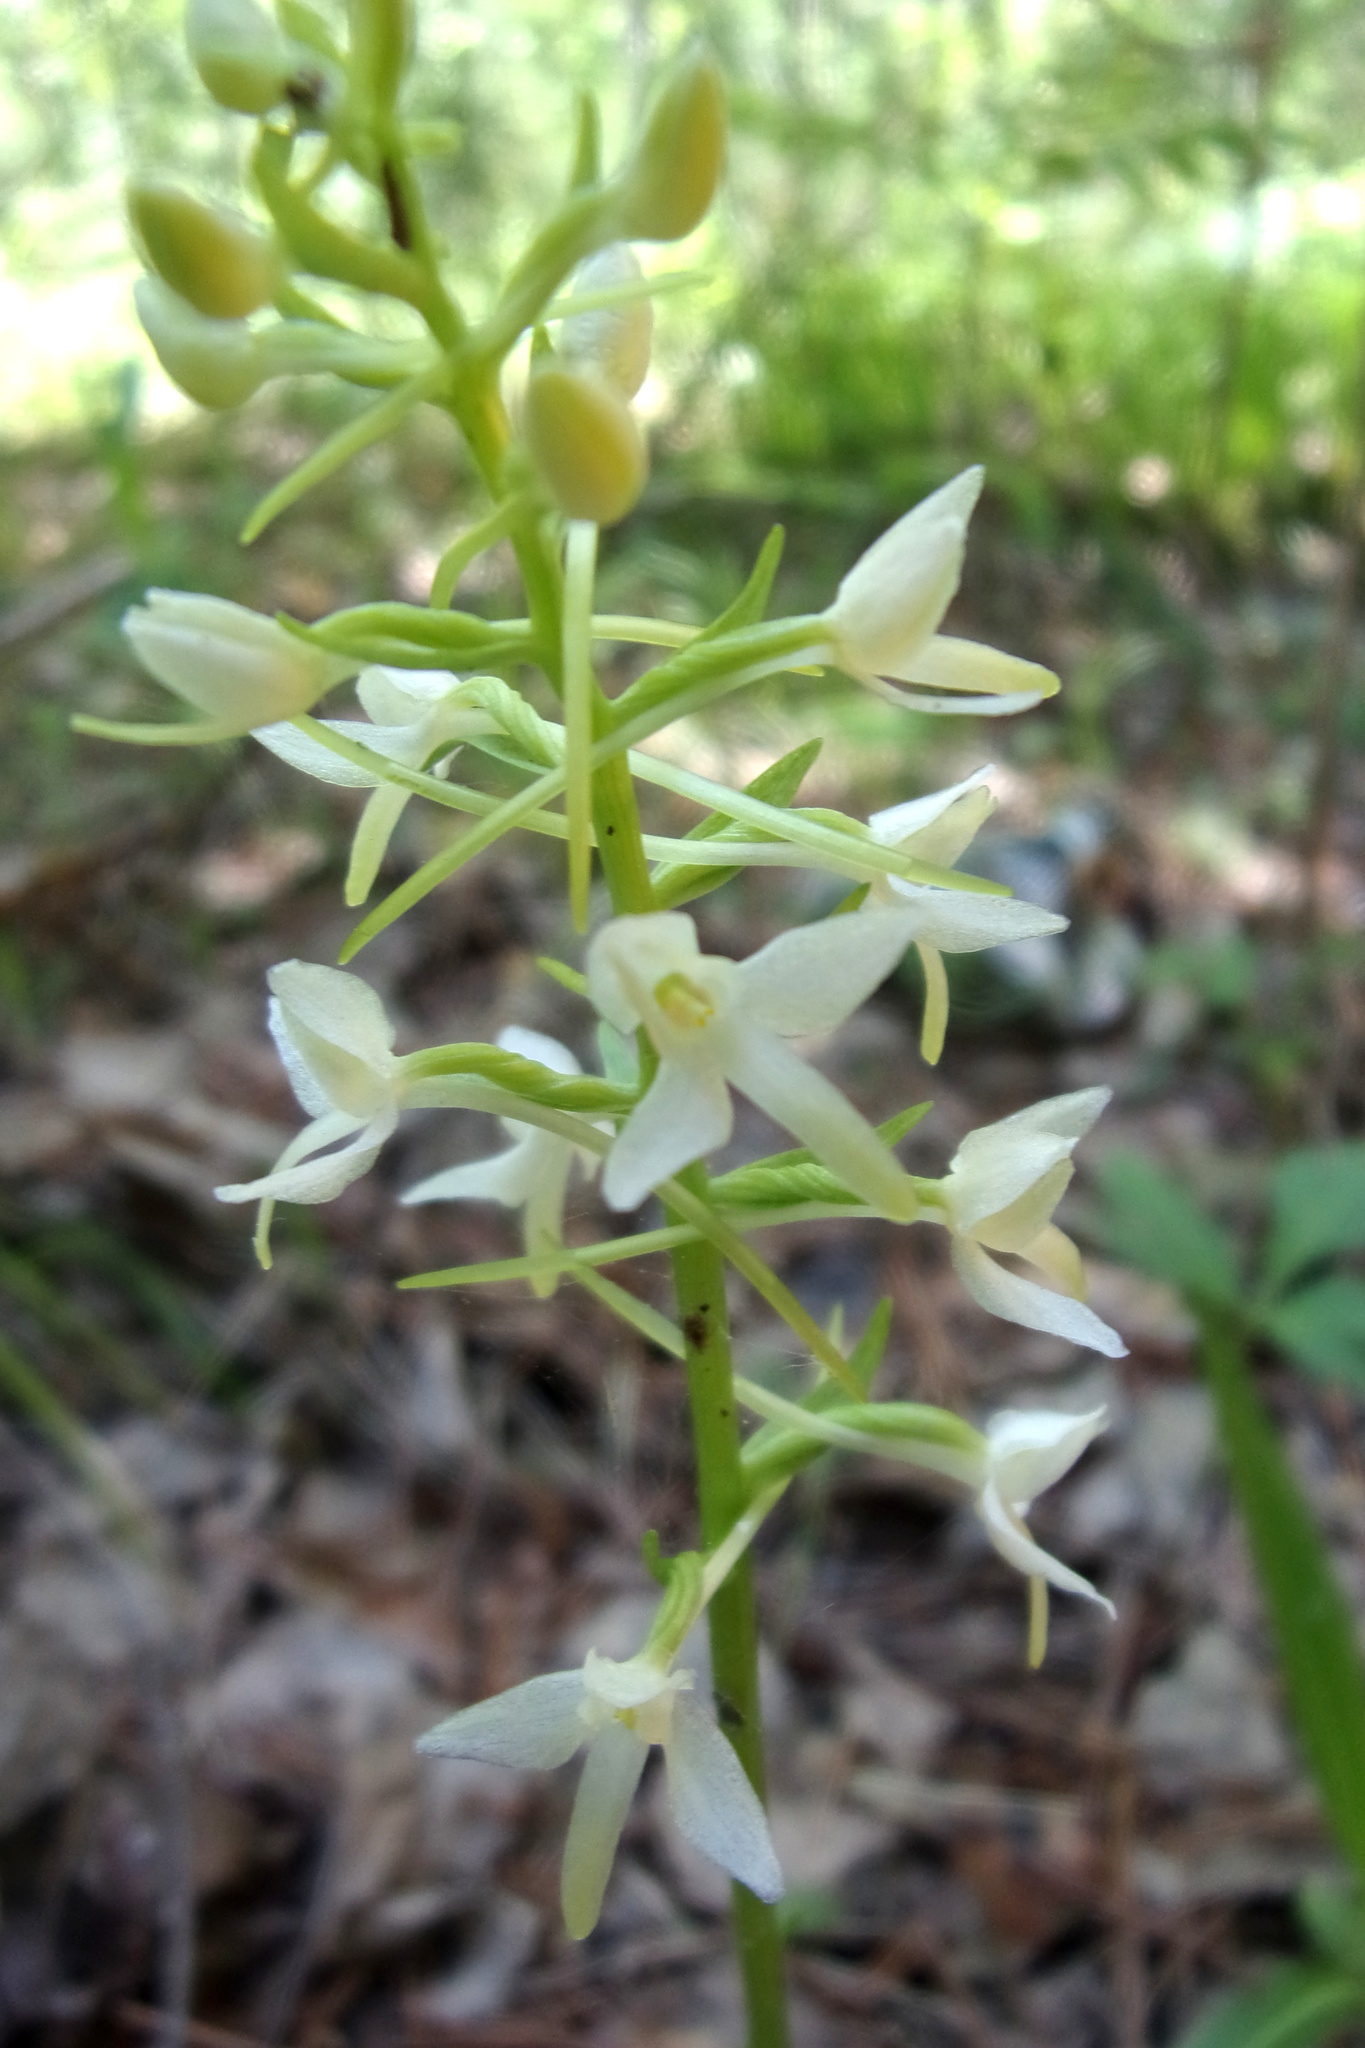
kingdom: Plantae
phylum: Tracheophyta
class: Liliopsida
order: Asparagales
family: Orchidaceae
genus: Platanthera
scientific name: Platanthera bifolia
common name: Lesser butterfly-orchid
